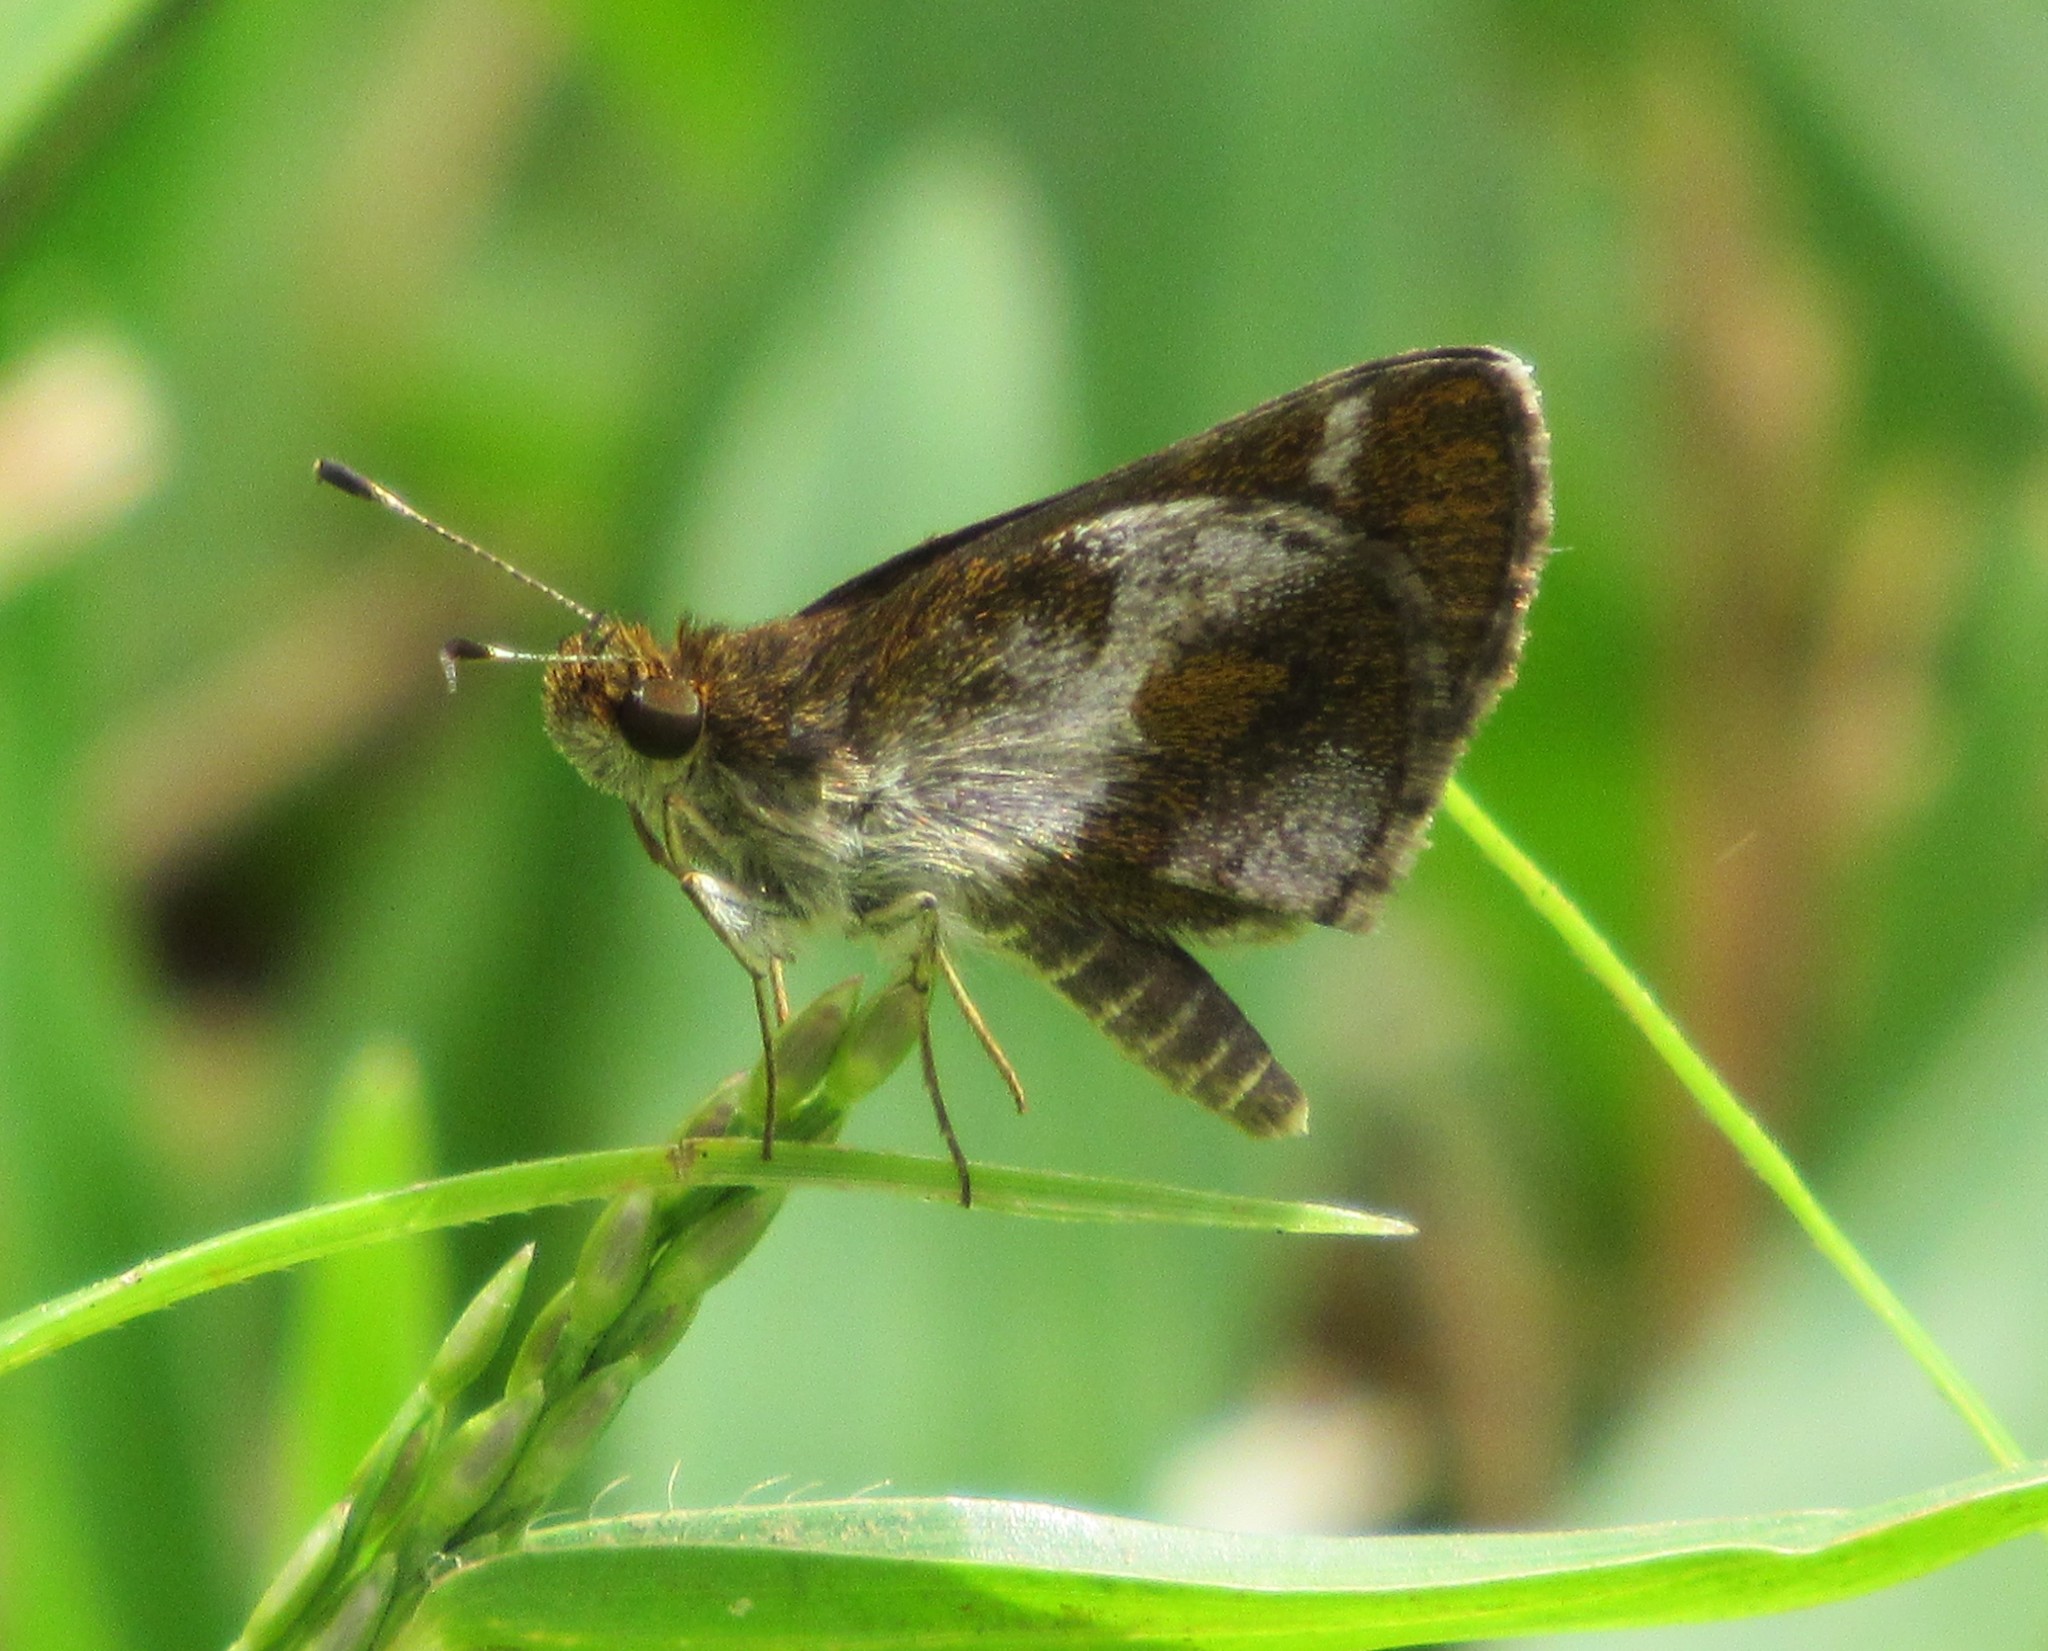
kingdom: Animalia
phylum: Arthropoda
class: Insecta
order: Lepidoptera
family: Hesperiidae
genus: Callimormus
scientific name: Callimormus
